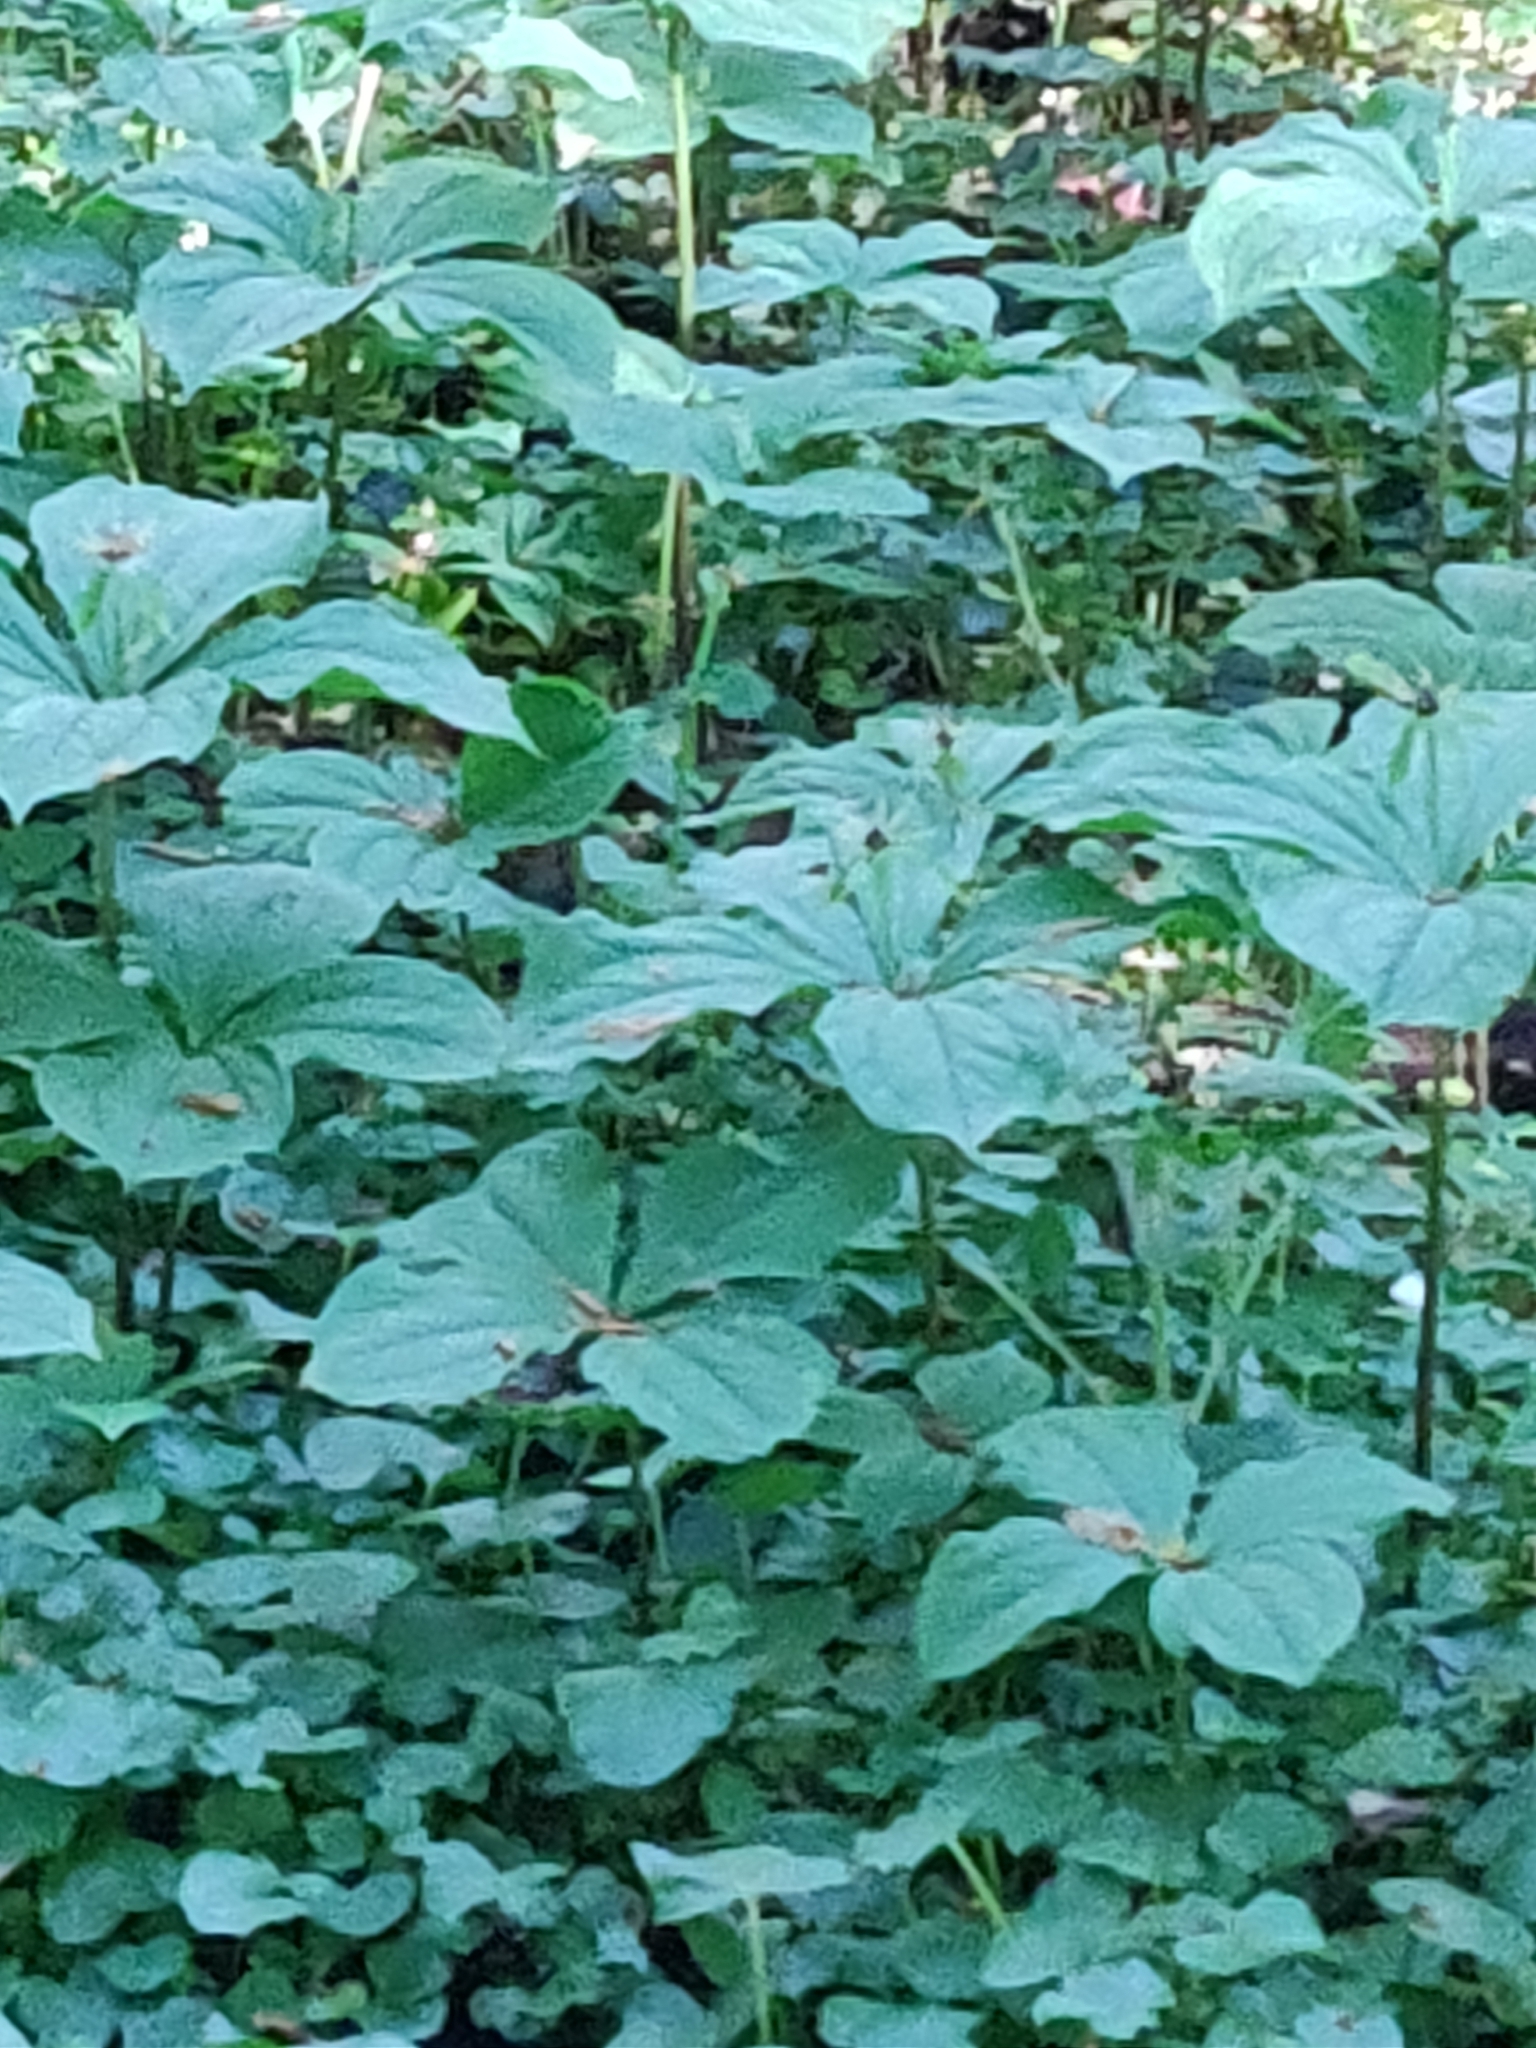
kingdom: Plantae
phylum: Tracheophyta
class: Liliopsida
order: Liliales
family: Melanthiaceae
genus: Paris
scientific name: Paris quadrifolia
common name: Herb-paris
